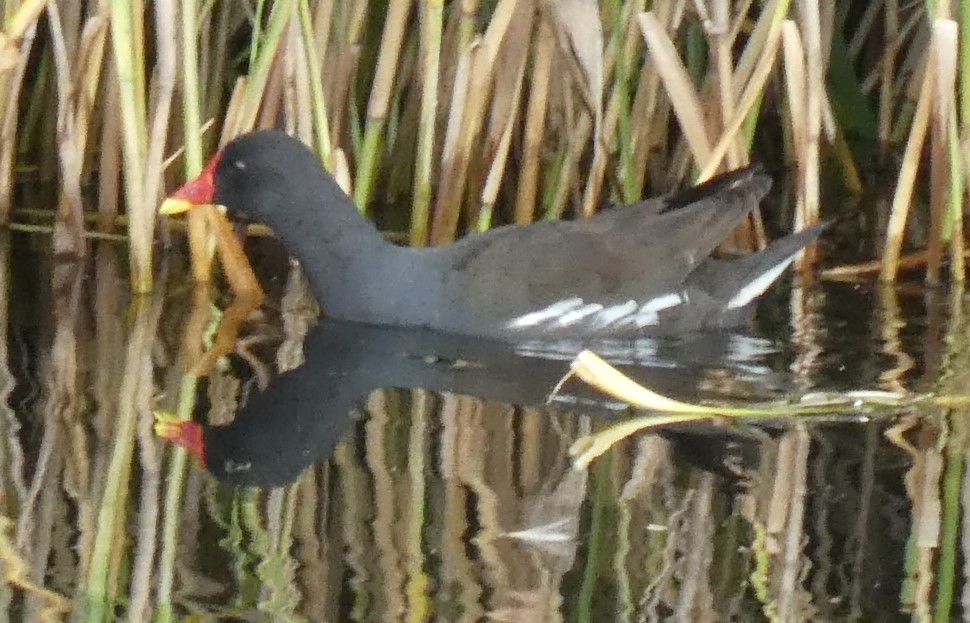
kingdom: Animalia
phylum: Chordata
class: Aves
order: Gruiformes
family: Rallidae
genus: Gallinula
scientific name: Gallinula chloropus
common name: Common moorhen
